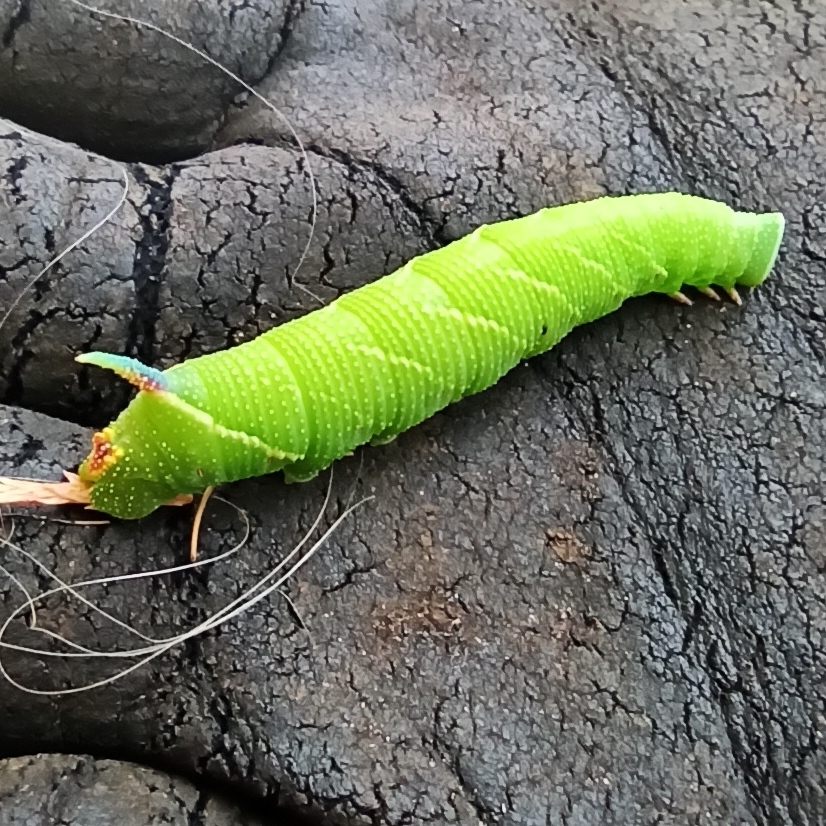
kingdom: Animalia
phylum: Arthropoda
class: Insecta
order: Lepidoptera
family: Sphingidae
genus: Mimas
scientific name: Mimas tiliae
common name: Lime hawk-moth
